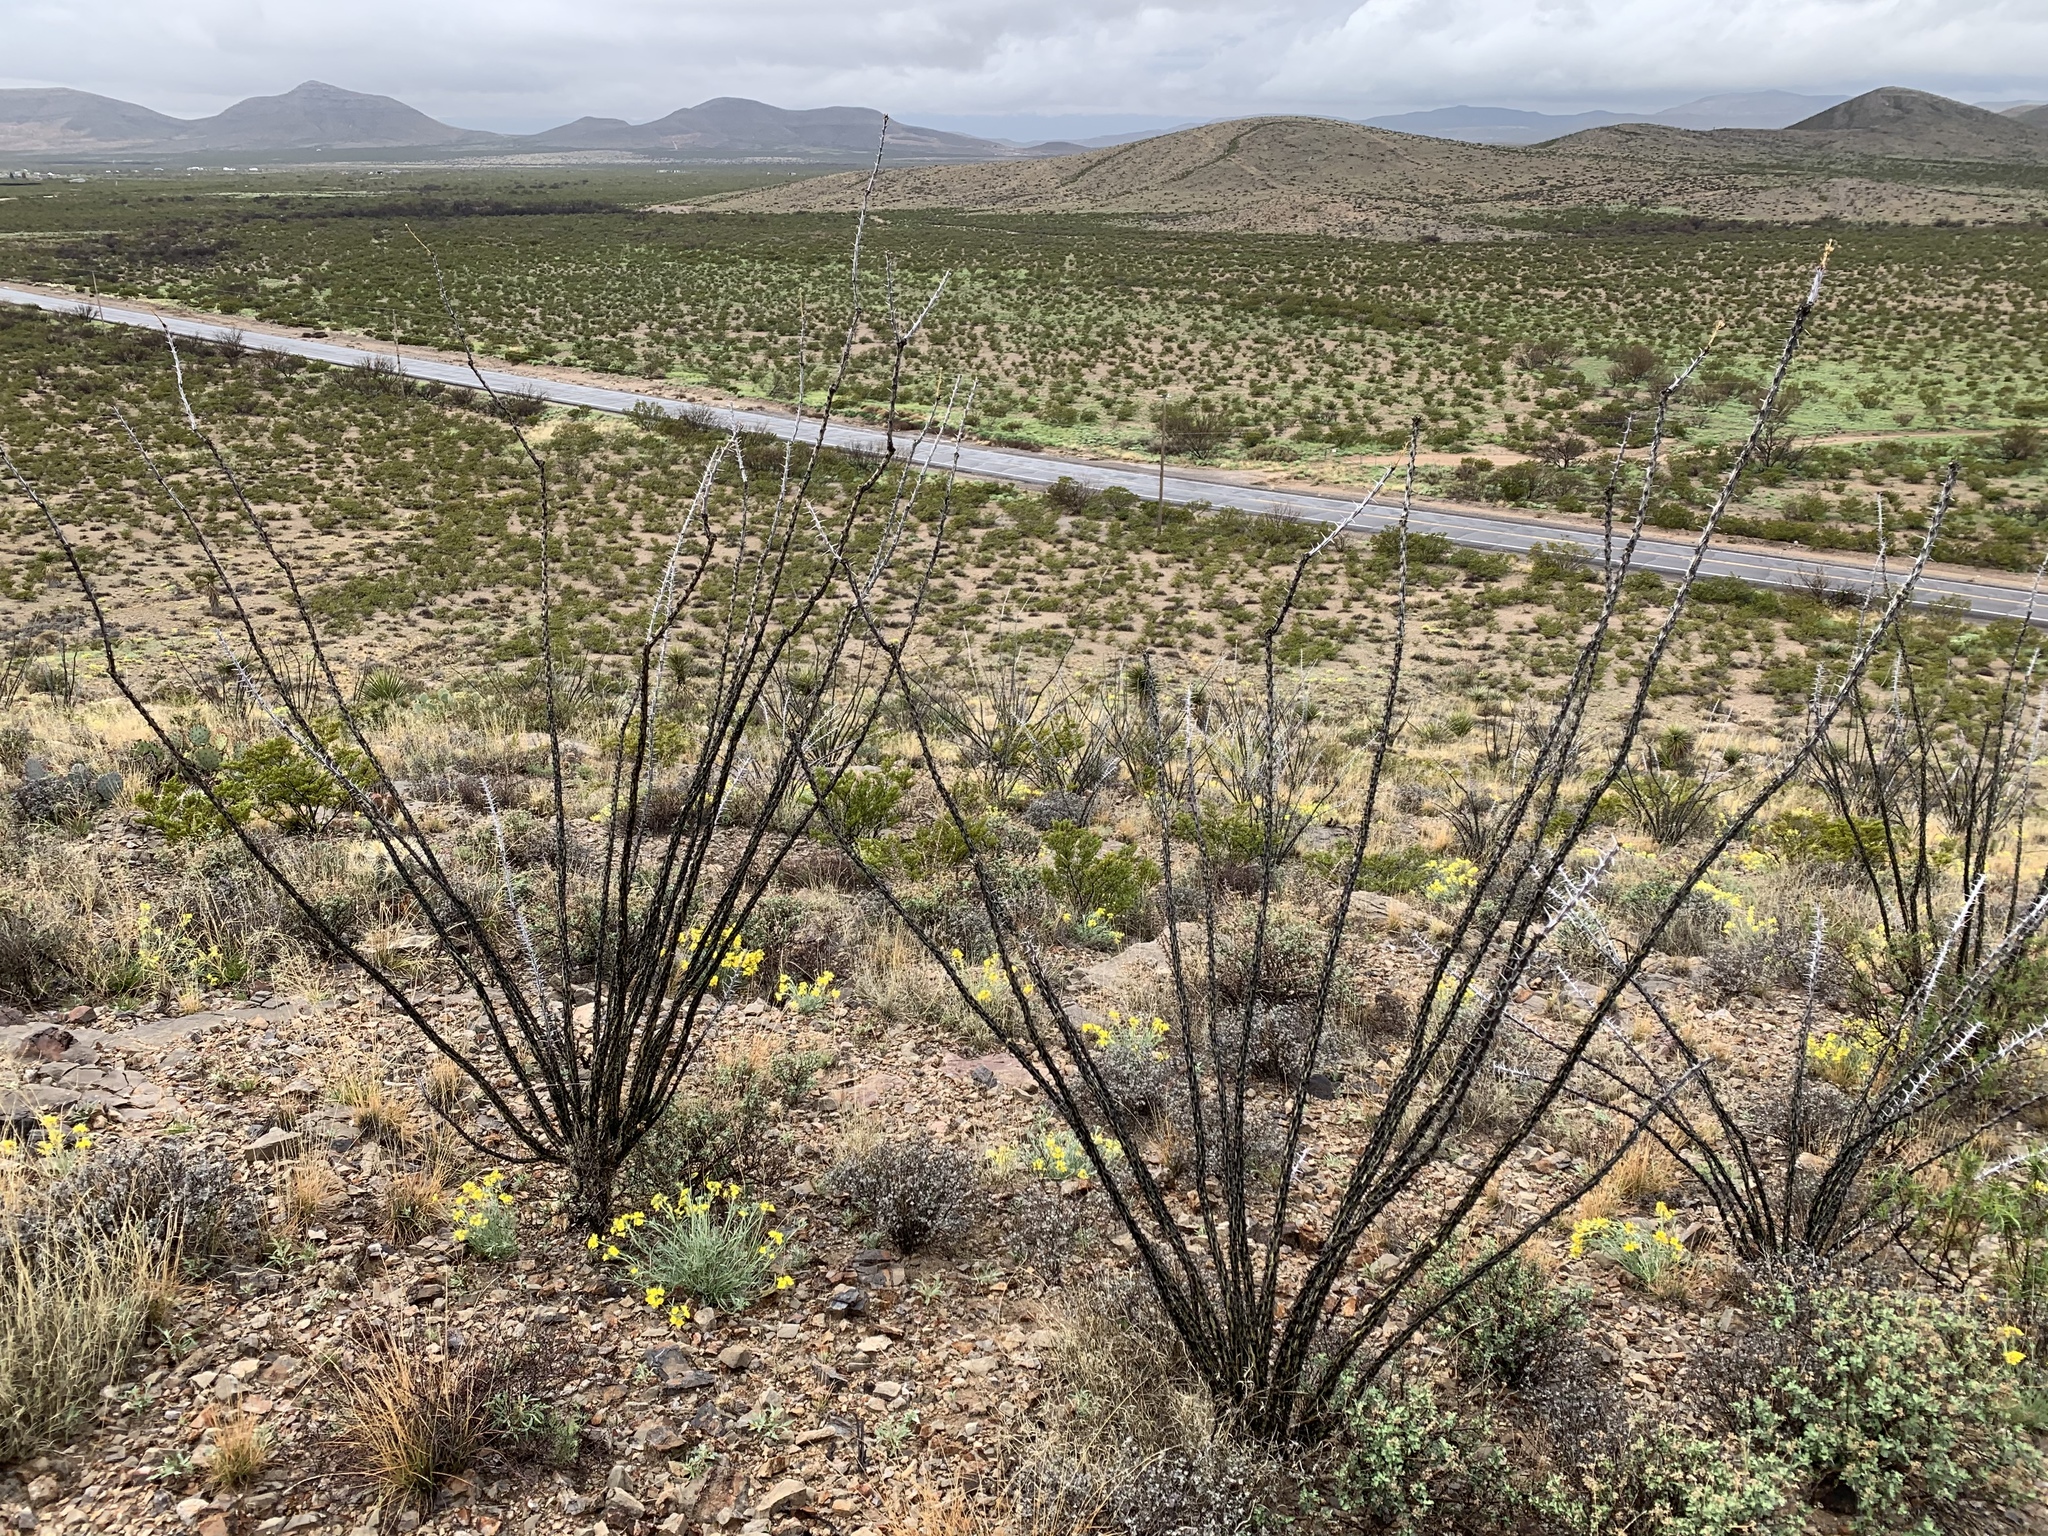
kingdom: Plantae
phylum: Tracheophyta
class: Magnoliopsida
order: Ericales
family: Fouquieriaceae
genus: Fouquieria
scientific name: Fouquieria splendens
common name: Vine-cactus
